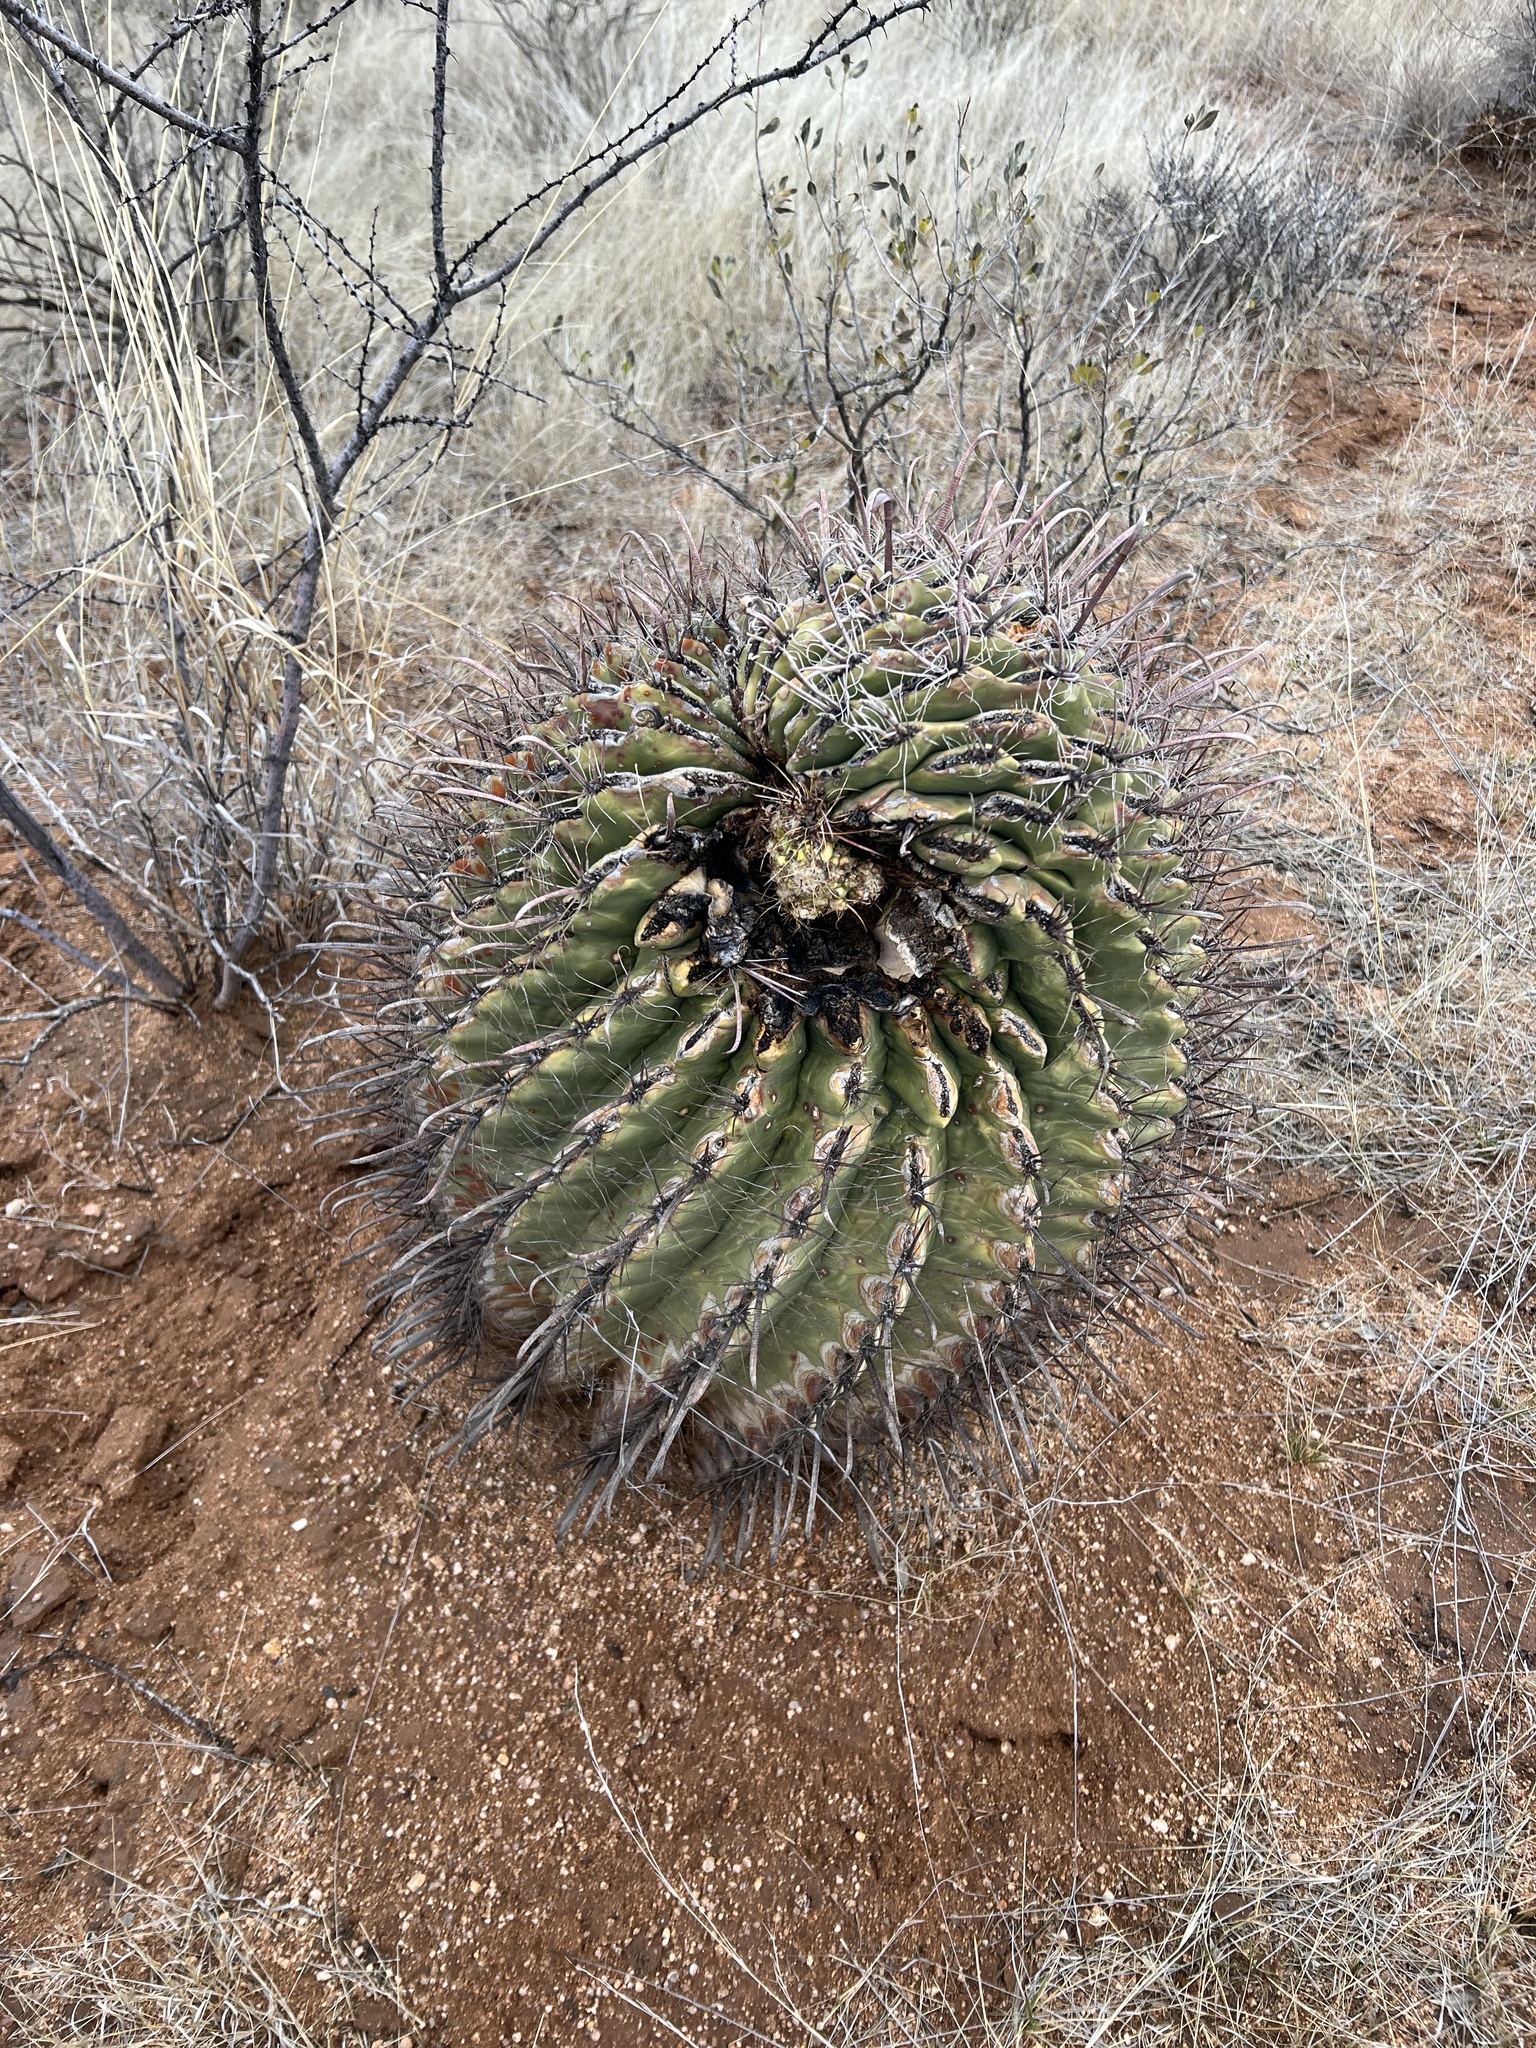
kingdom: Plantae
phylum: Tracheophyta
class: Magnoliopsida
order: Caryophyllales
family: Cactaceae
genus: Ferocactus
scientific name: Ferocactus wislizeni
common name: Candy barrel cactus
